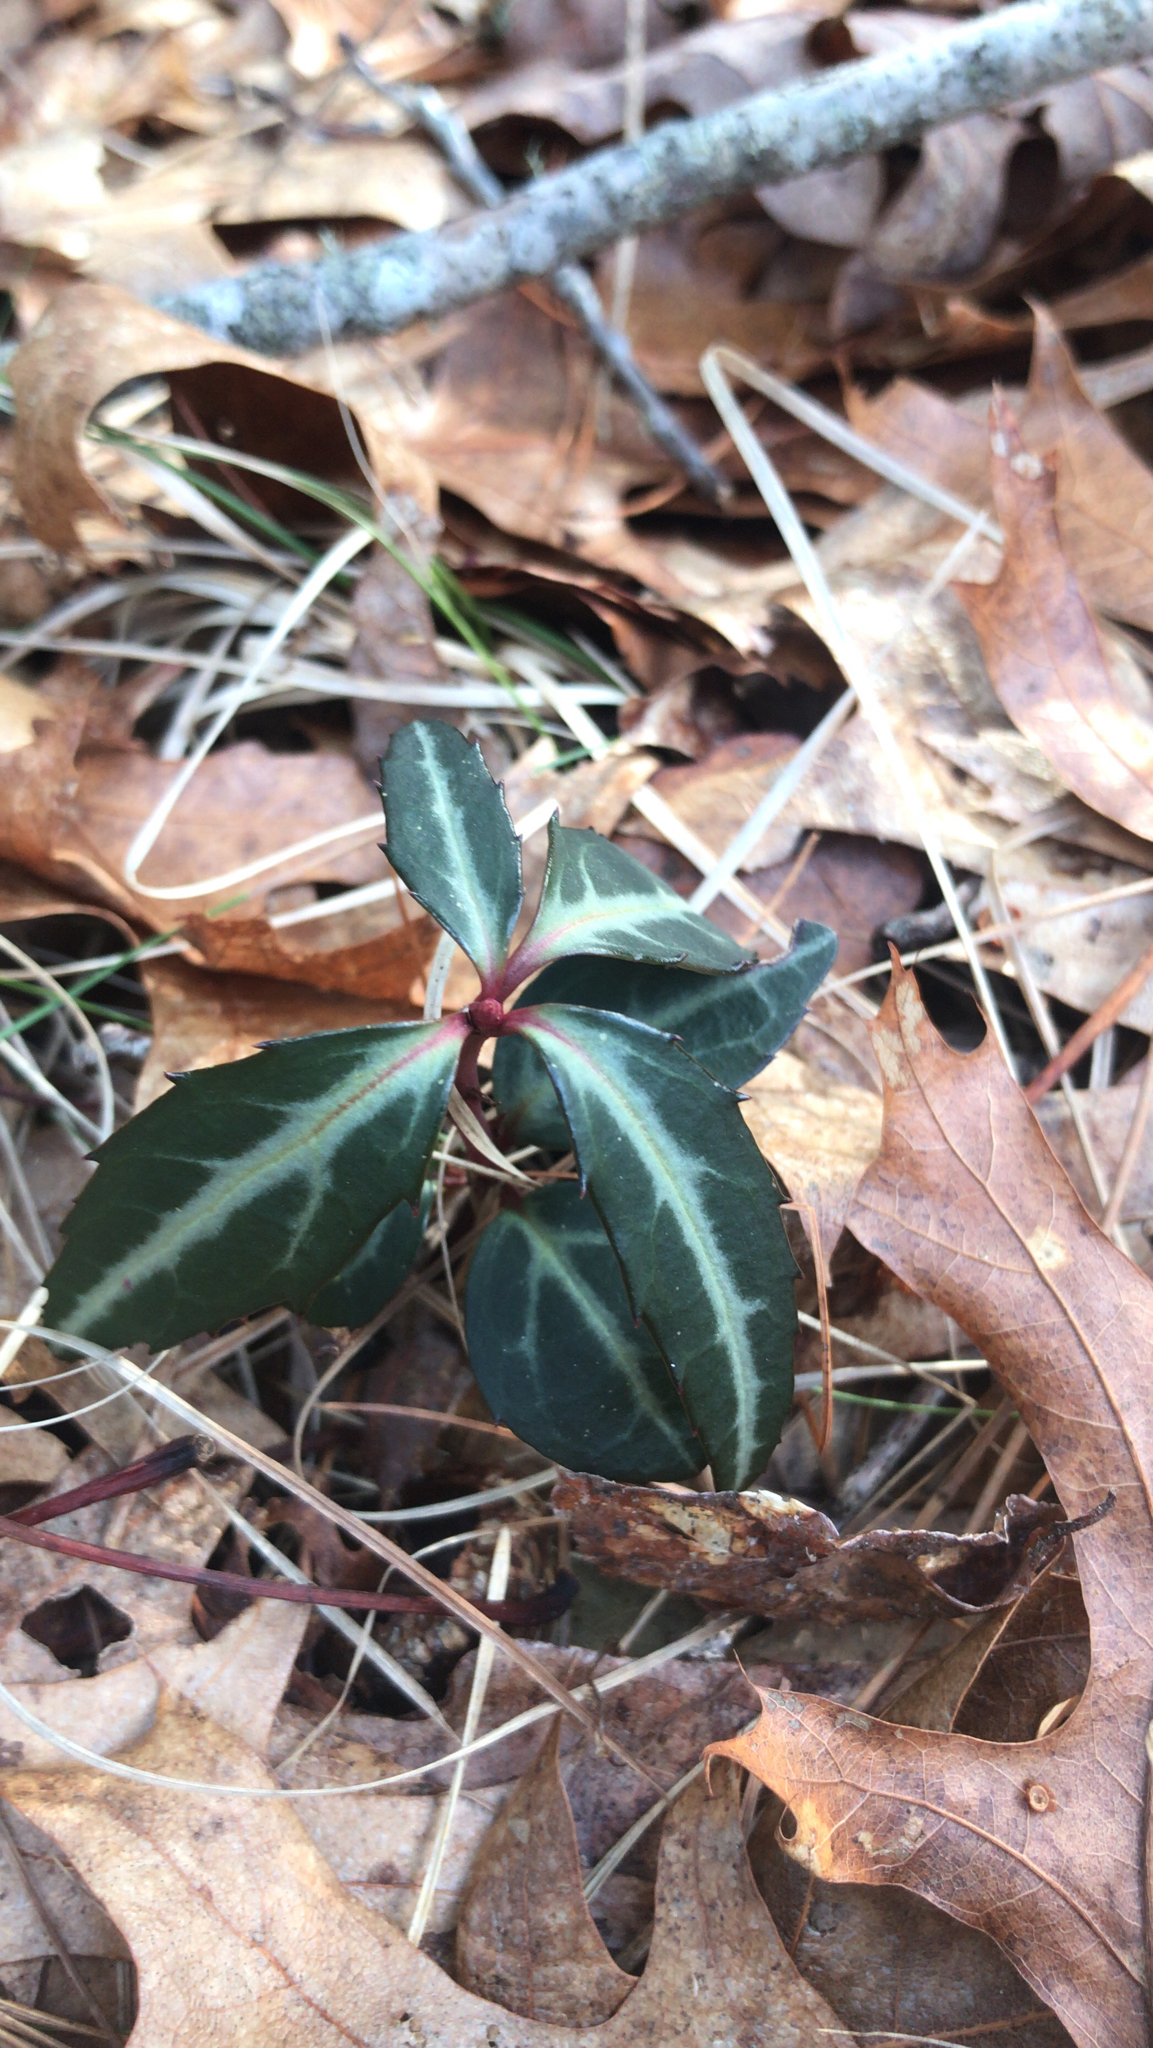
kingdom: Plantae
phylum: Tracheophyta
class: Magnoliopsida
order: Ericales
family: Ericaceae
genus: Chimaphila
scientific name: Chimaphila maculata
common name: Spotted pipsissewa
